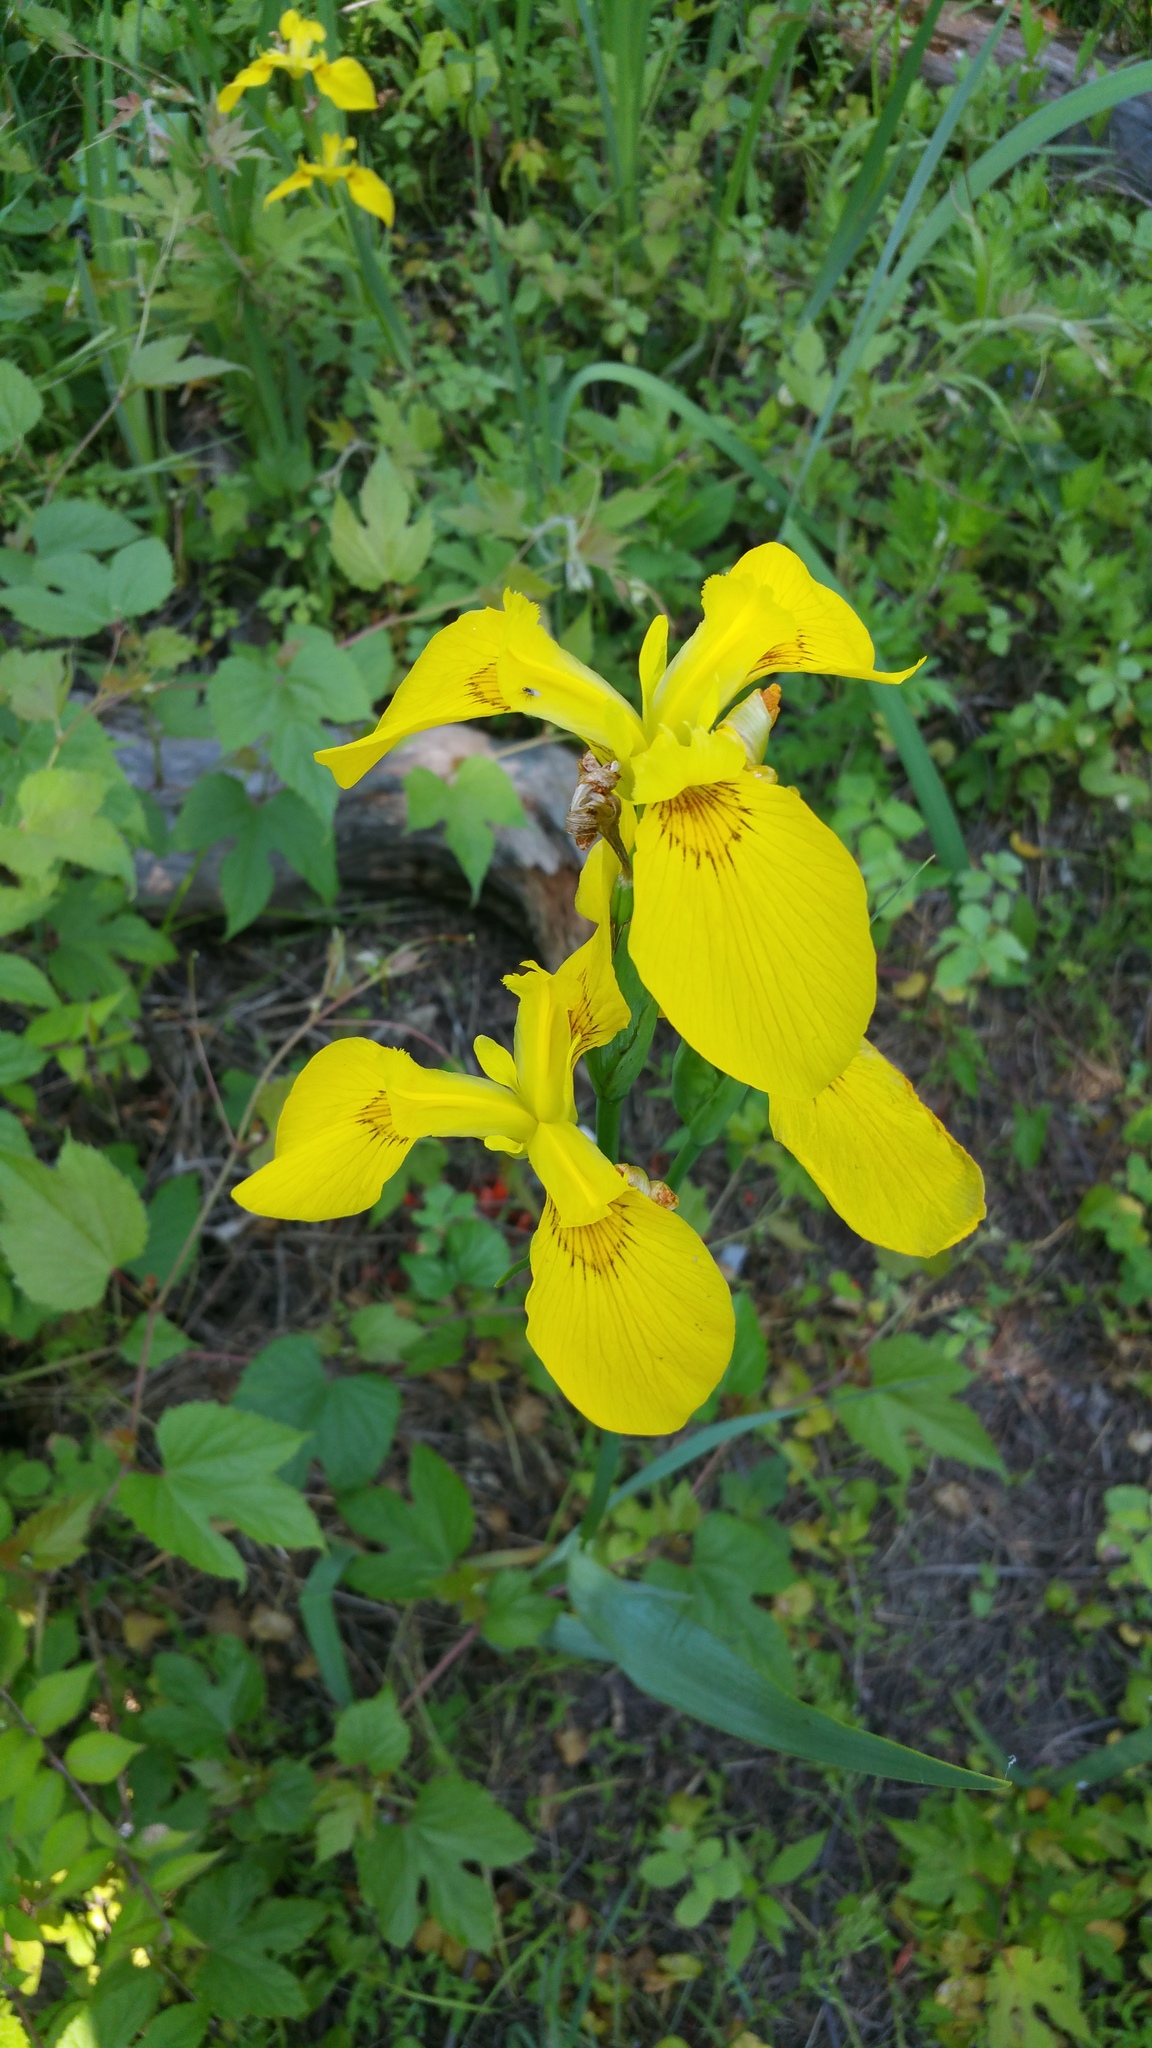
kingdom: Plantae
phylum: Tracheophyta
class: Liliopsida
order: Asparagales
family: Iridaceae
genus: Iris
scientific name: Iris pseudacorus
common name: Yellow flag
